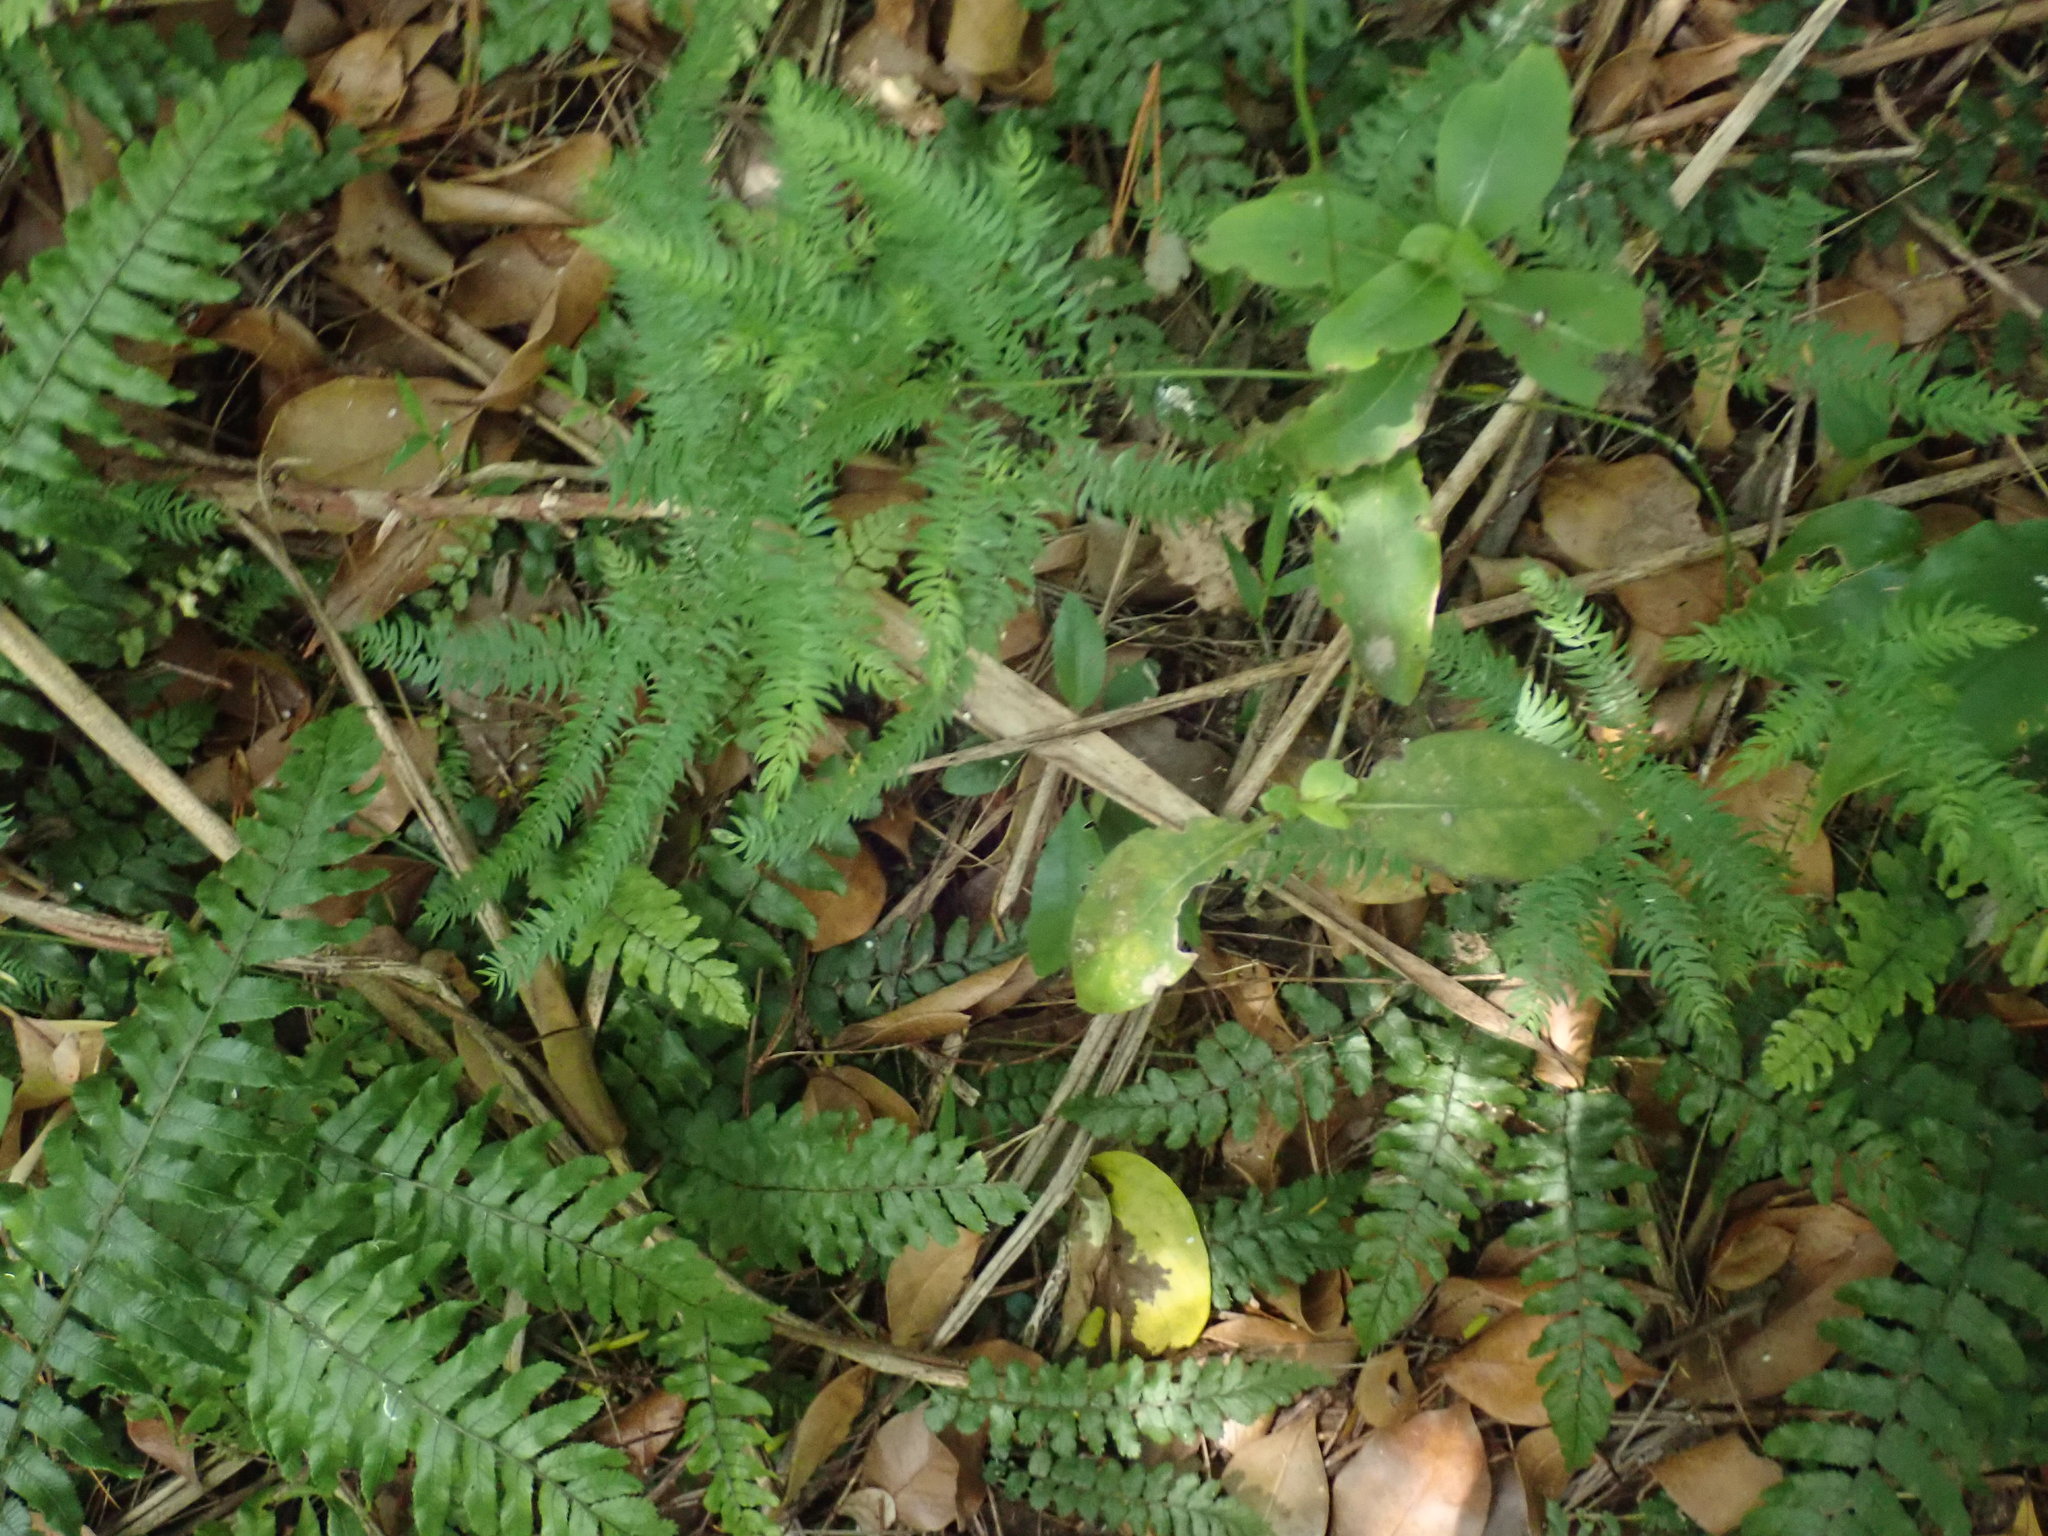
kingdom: Plantae
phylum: Tracheophyta
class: Magnoliopsida
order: Gentianales
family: Rubiaceae
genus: Coprosma
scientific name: Coprosma robusta
